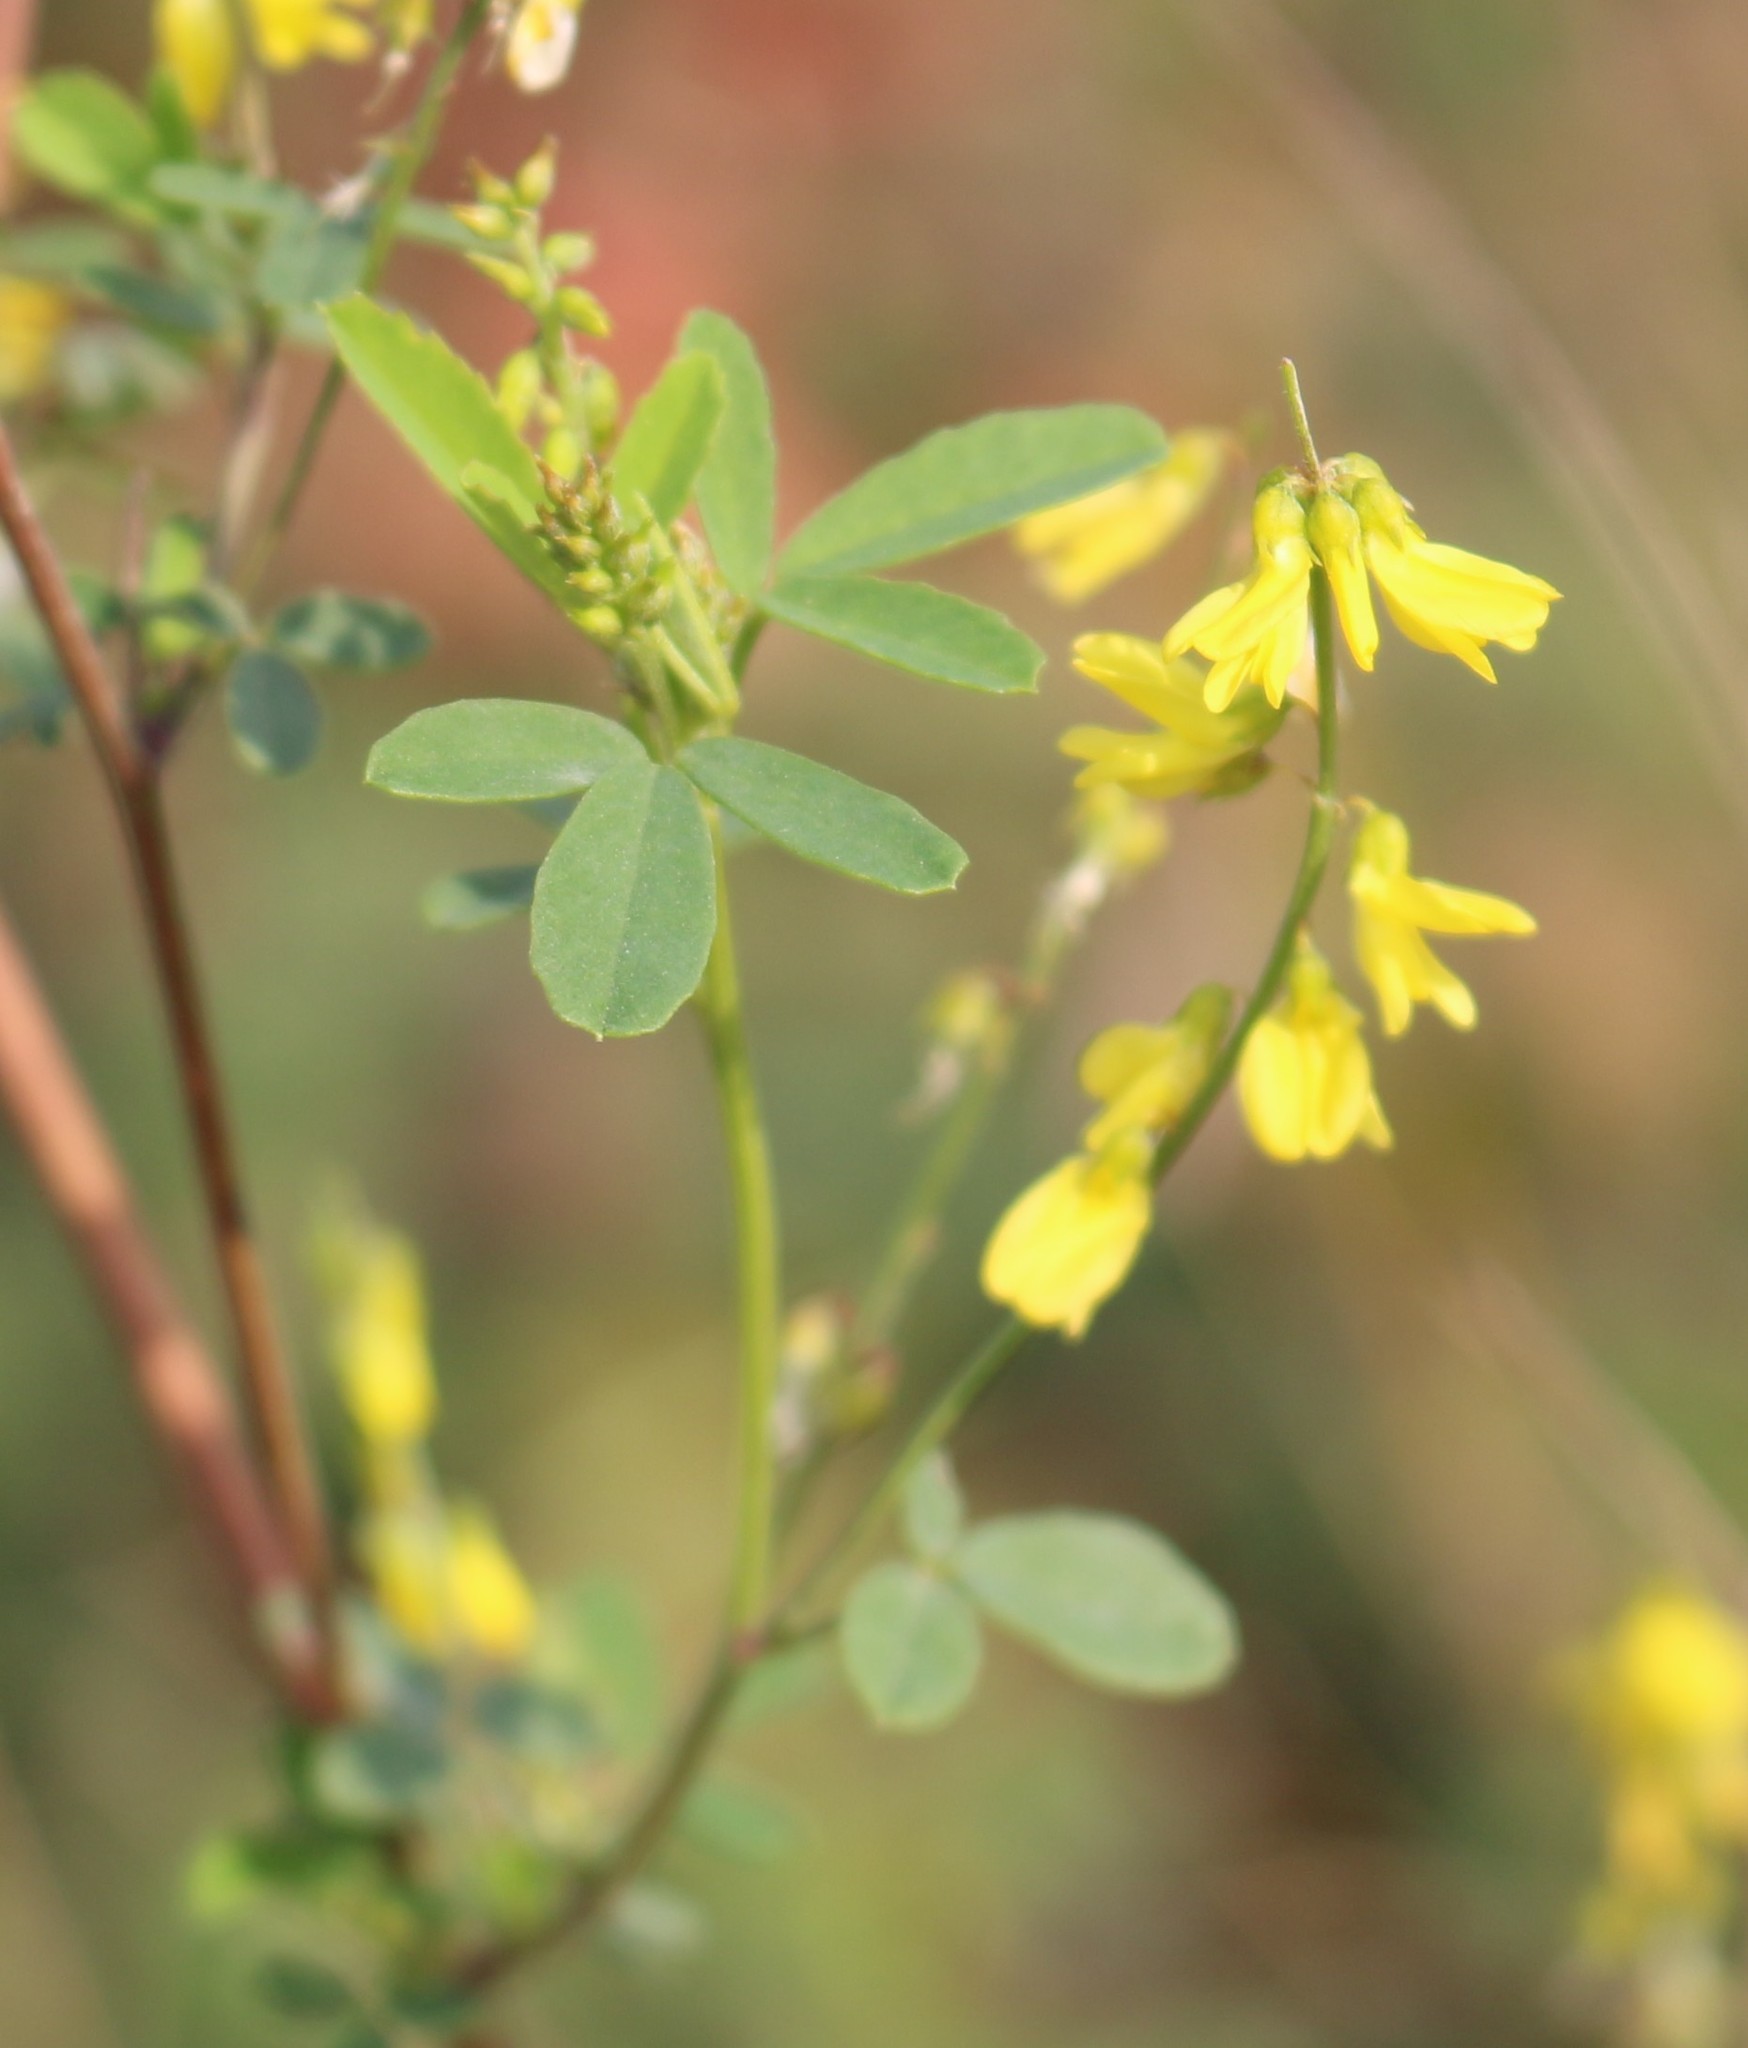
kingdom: Plantae
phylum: Tracheophyta
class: Magnoliopsida
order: Fabales
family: Fabaceae
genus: Melilotus
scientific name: Melilotus officinalis
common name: Sweetclover
